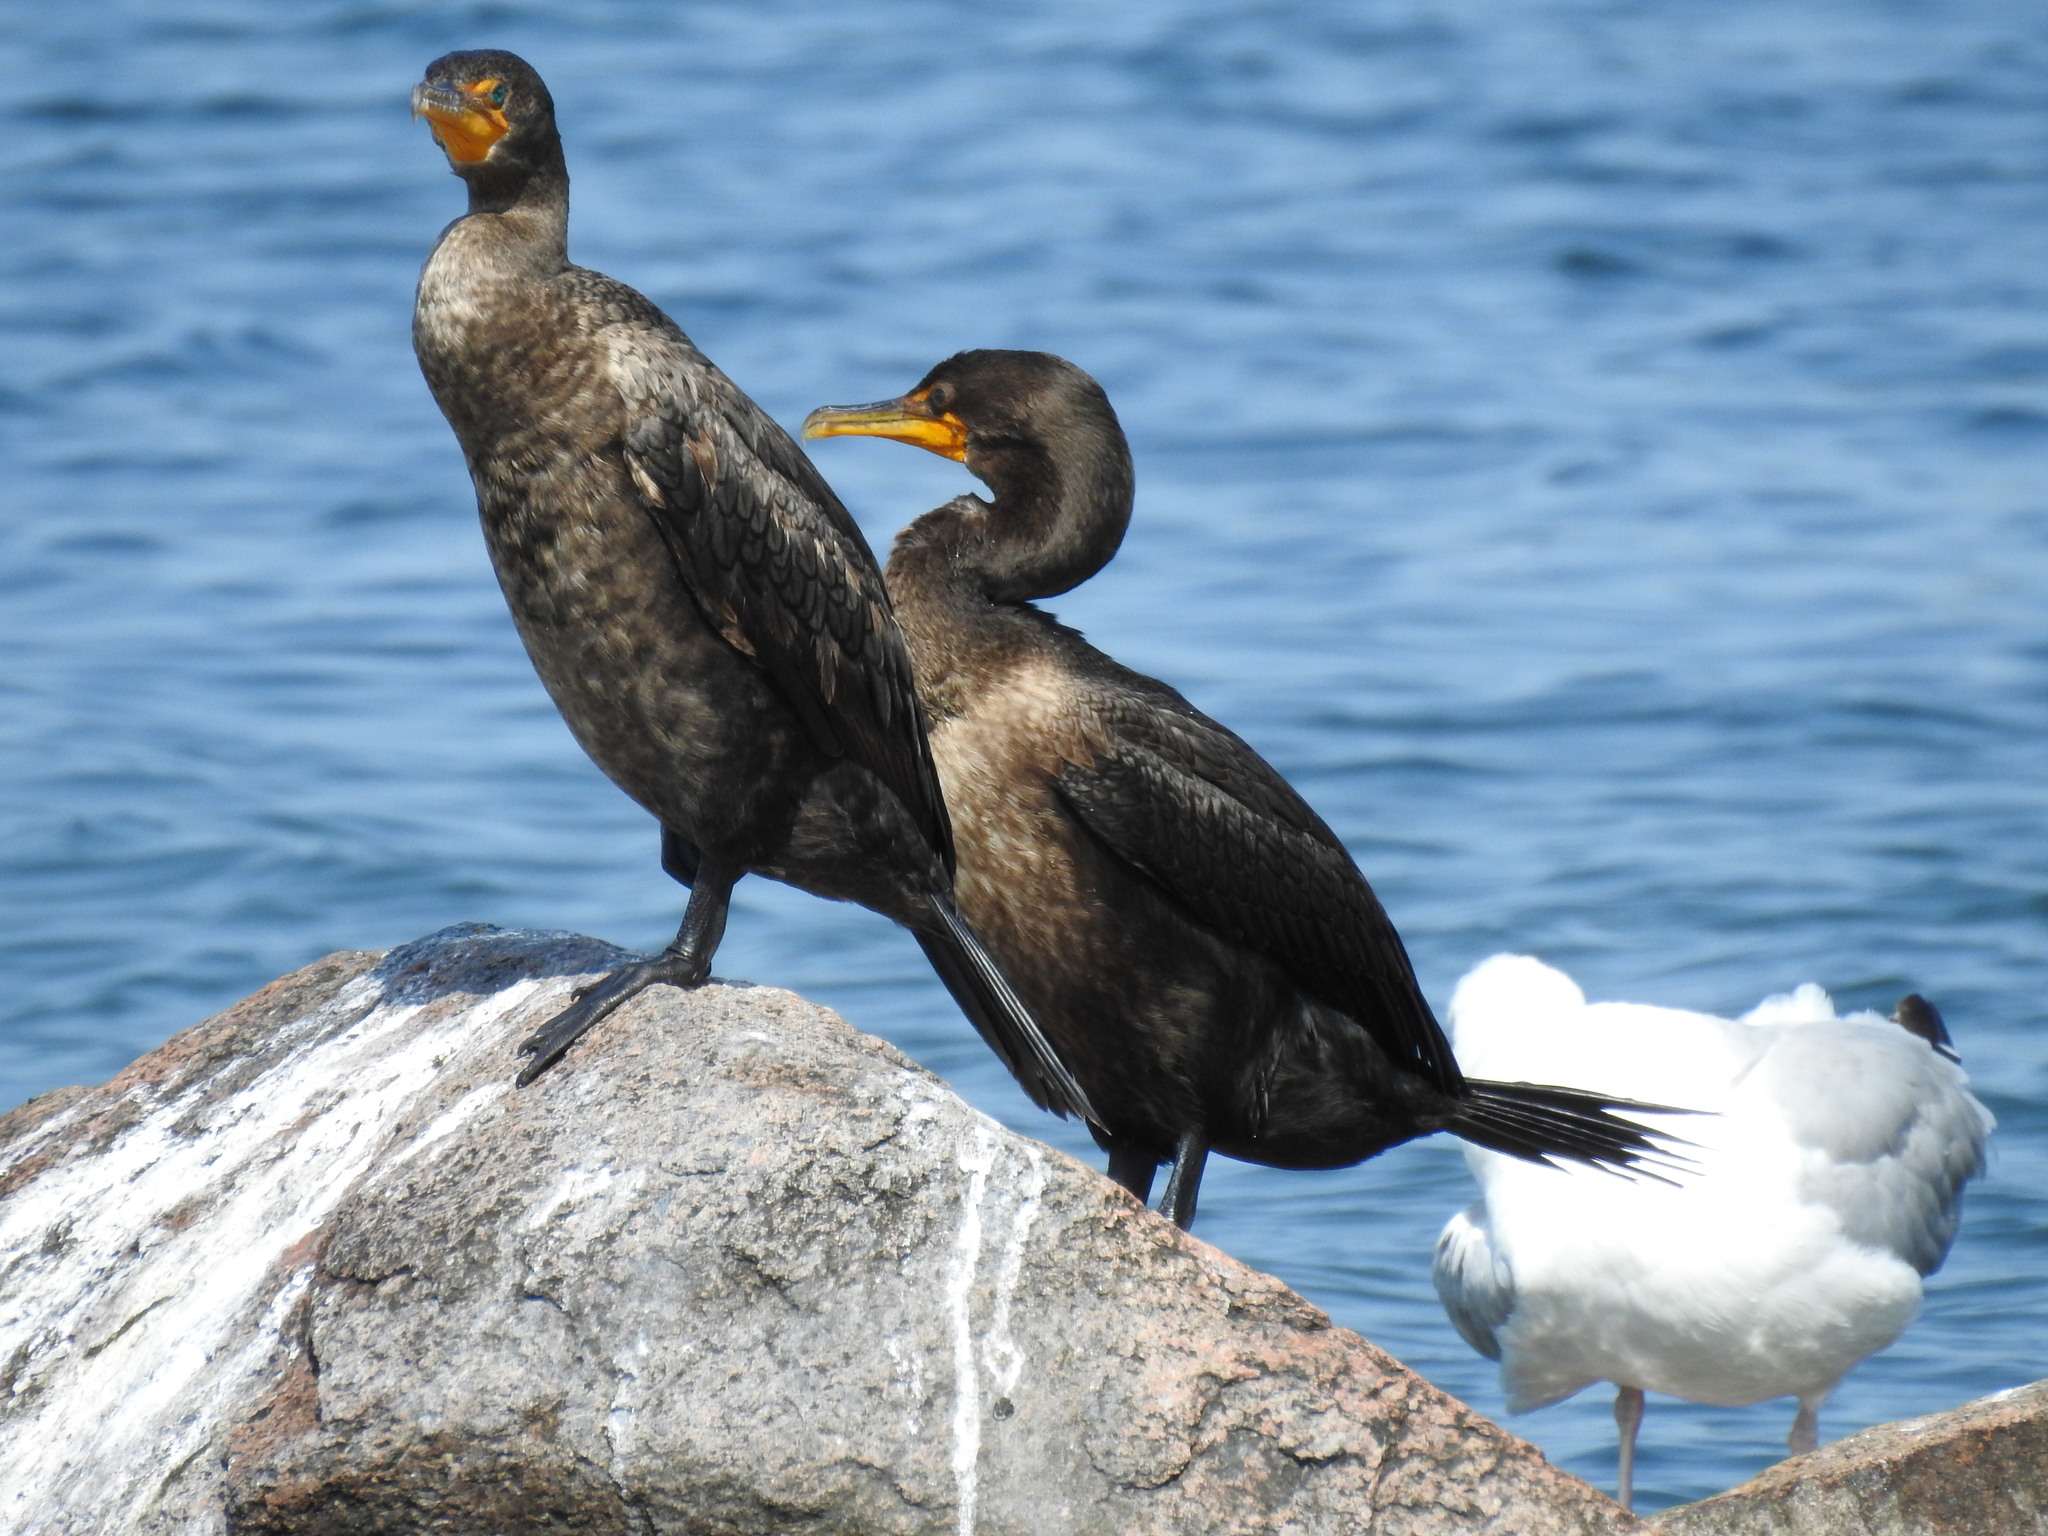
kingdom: Animalia
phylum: Chordata
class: Aves
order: Suliformes
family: Phalacrocoracidae
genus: Phalacrocorax
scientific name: Phalacrocorax auritus
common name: Double-crested cormorant
